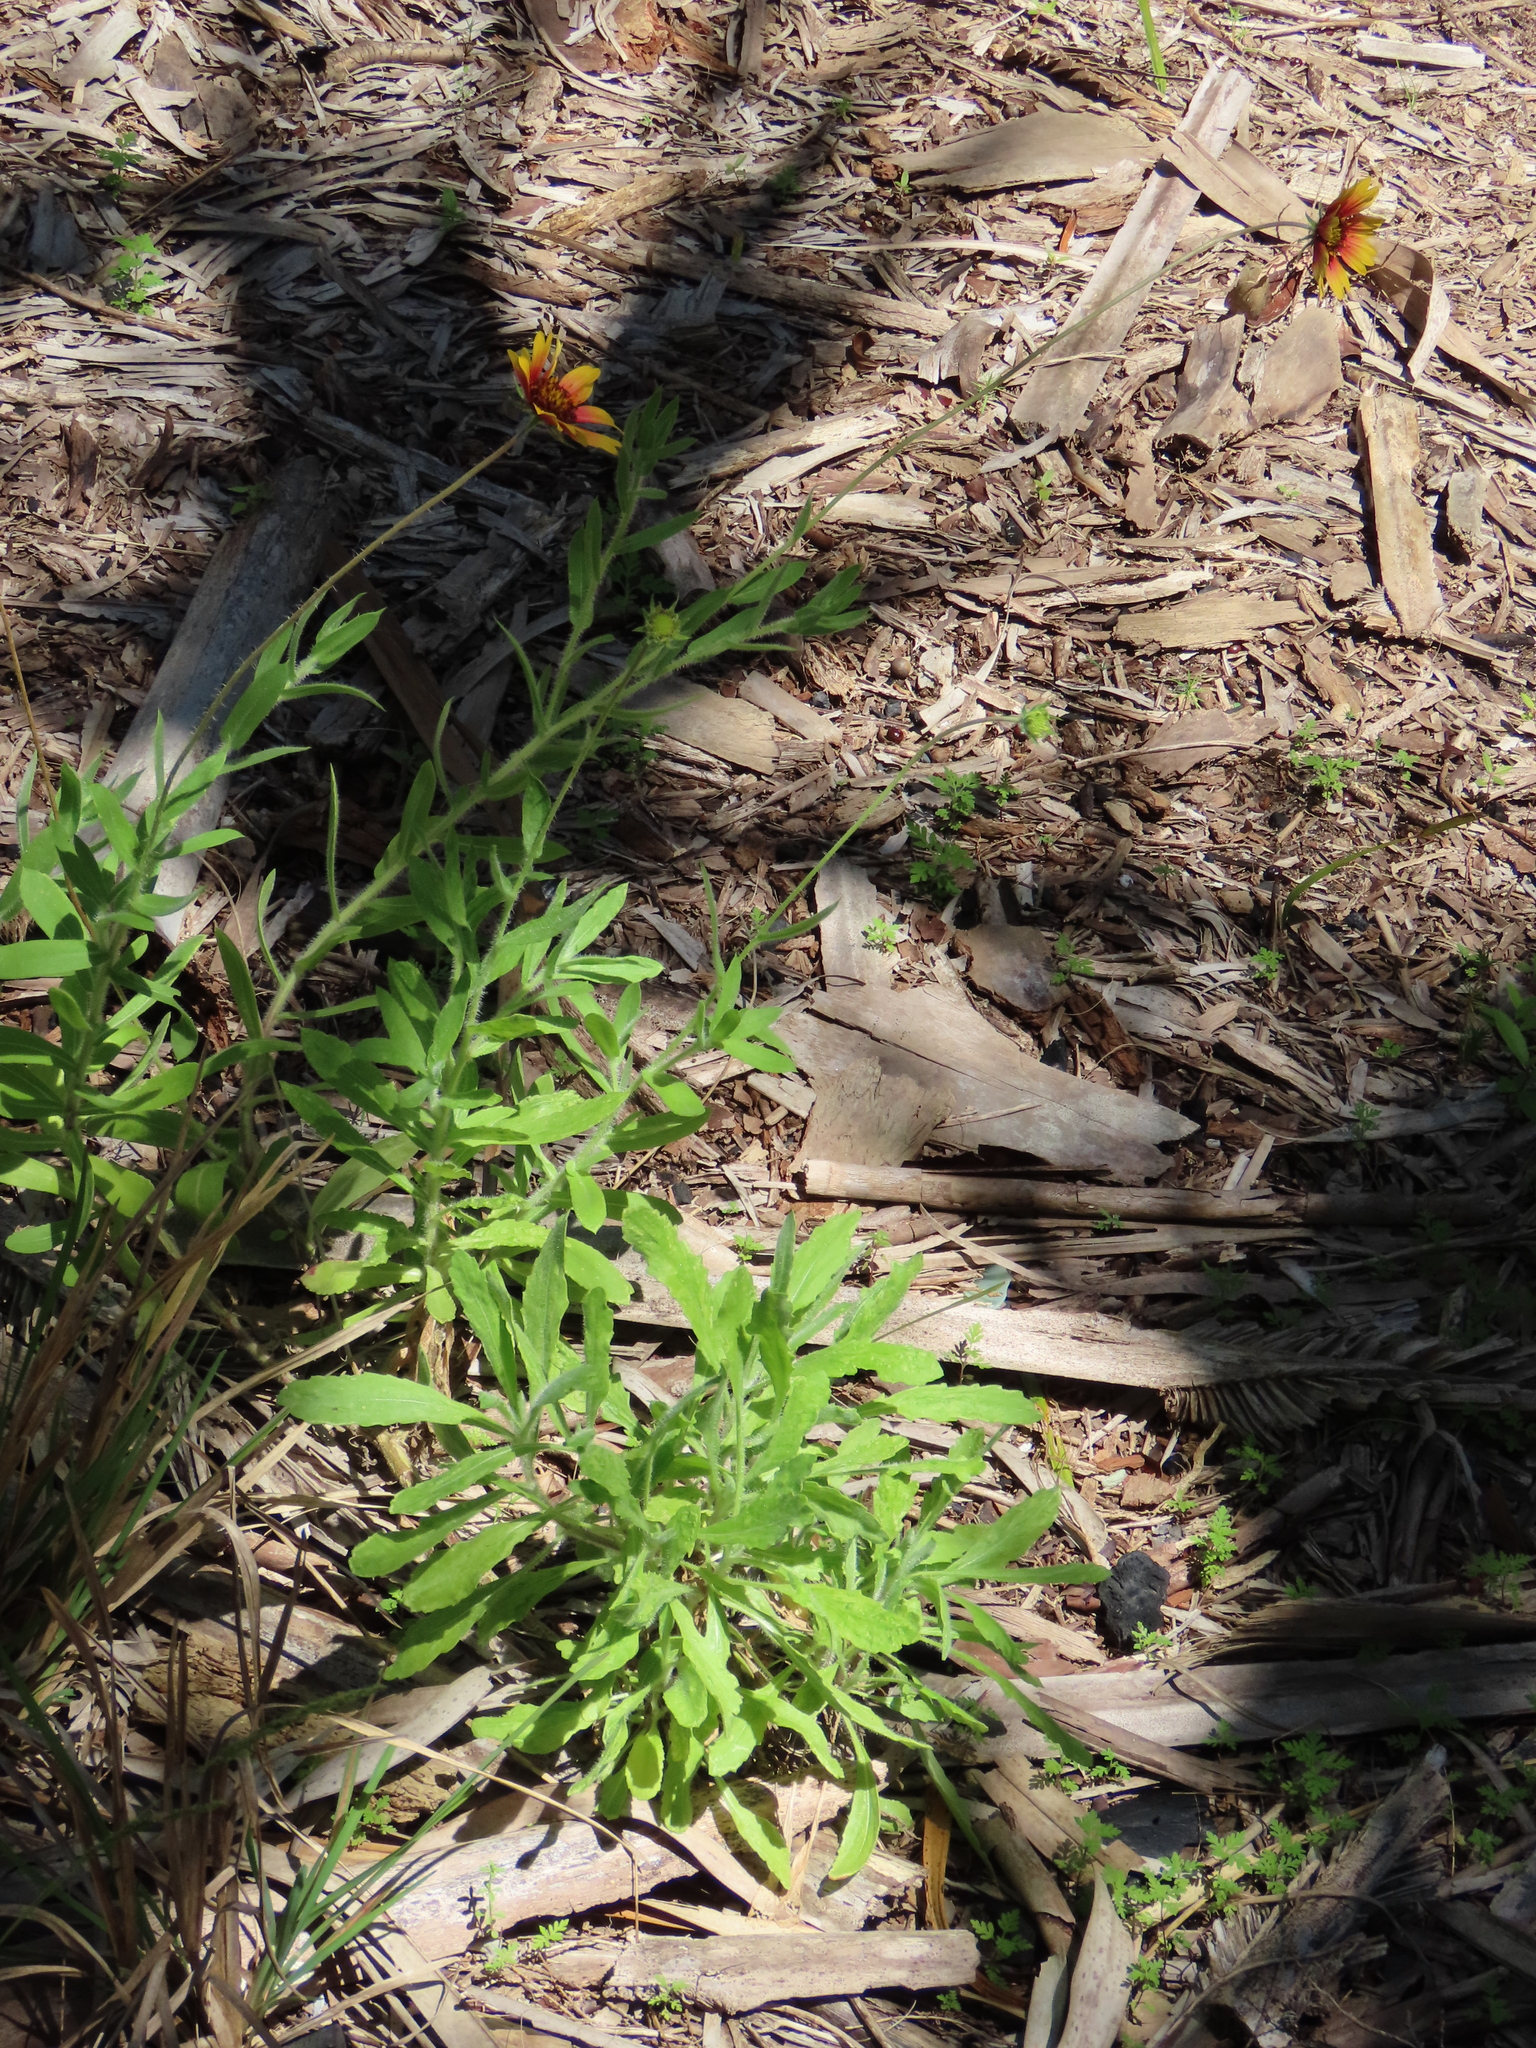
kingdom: Plantae
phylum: Tracheophyta
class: Magnoliopsida
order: Asterales
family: Asteraceae
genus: Gaillardia
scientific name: Gaillardia pulchella
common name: Firewheel
